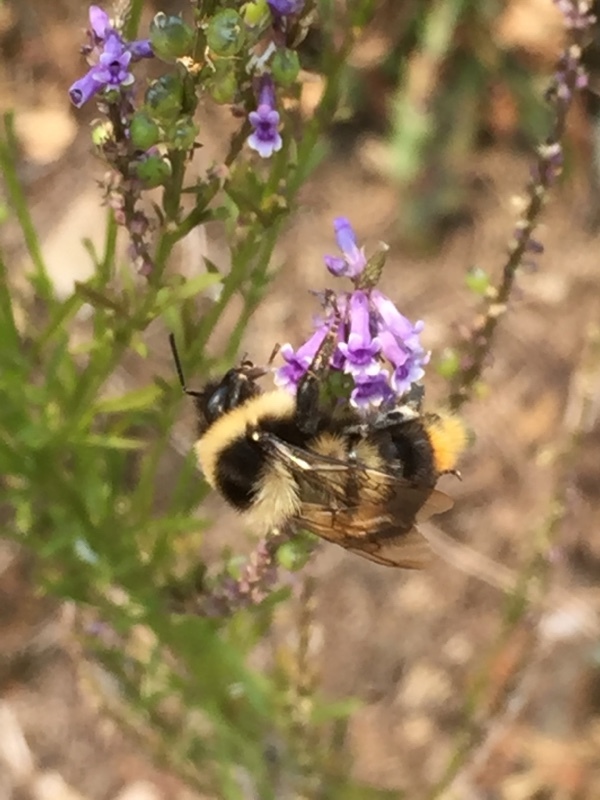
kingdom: Plantae
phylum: Tracheophyta
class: Magnoliopsida
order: Lamiales
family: Plantaginaceae
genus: Anarrhinum
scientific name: Anarrhinum bellidifolium
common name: Daisy-leaved toadflax
